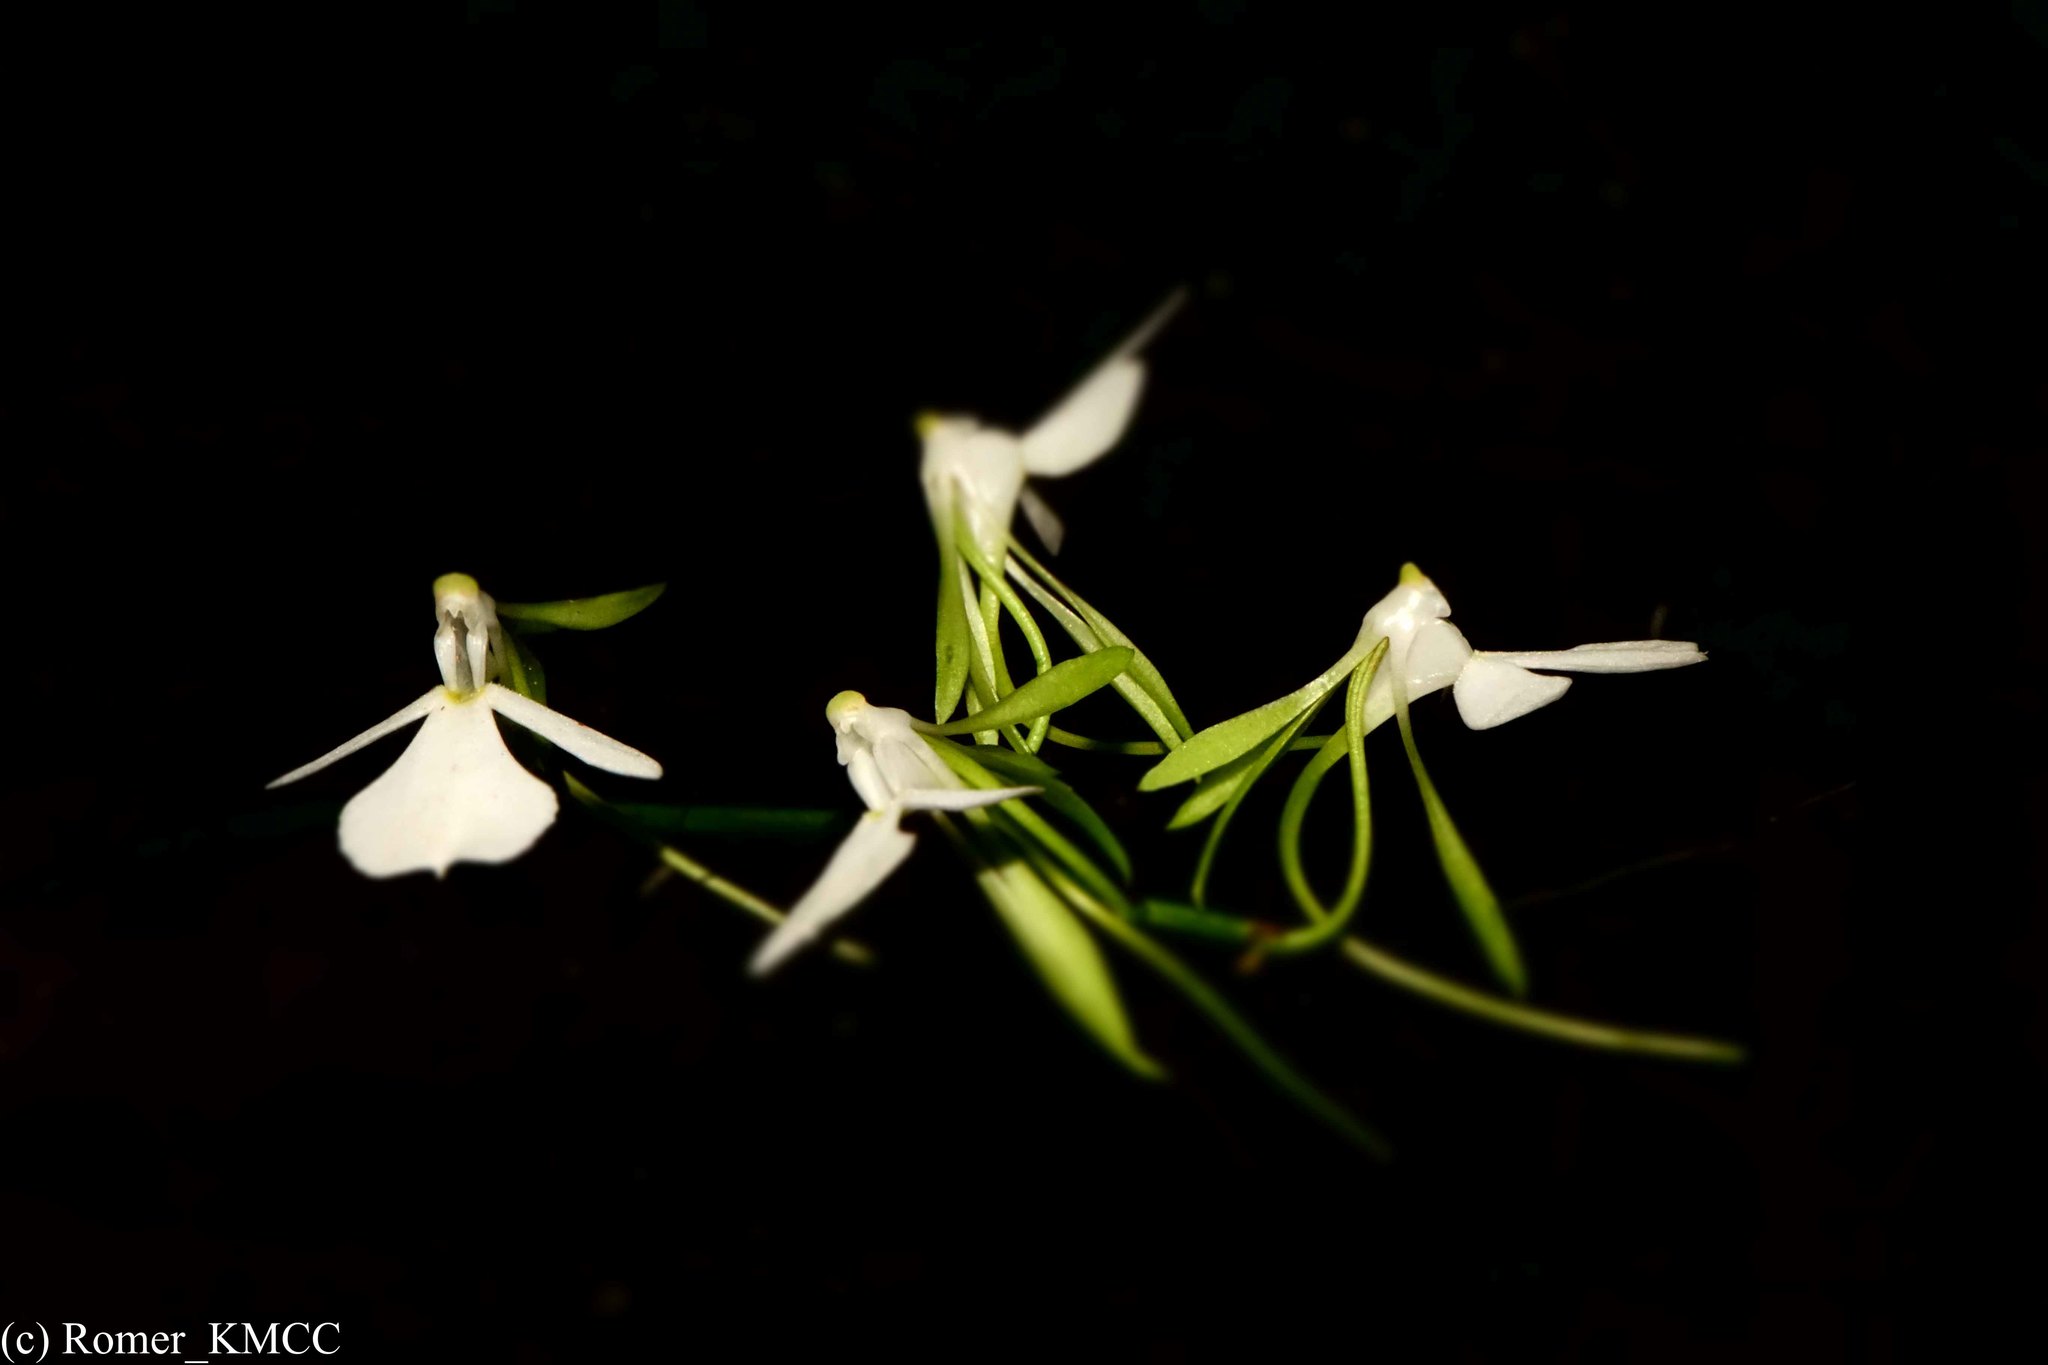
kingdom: Plantae
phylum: Tracheophyta
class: Liliopsida
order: Asparagales
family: Orchidaceae
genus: Neobathiea
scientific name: Neobathiea hirtula
